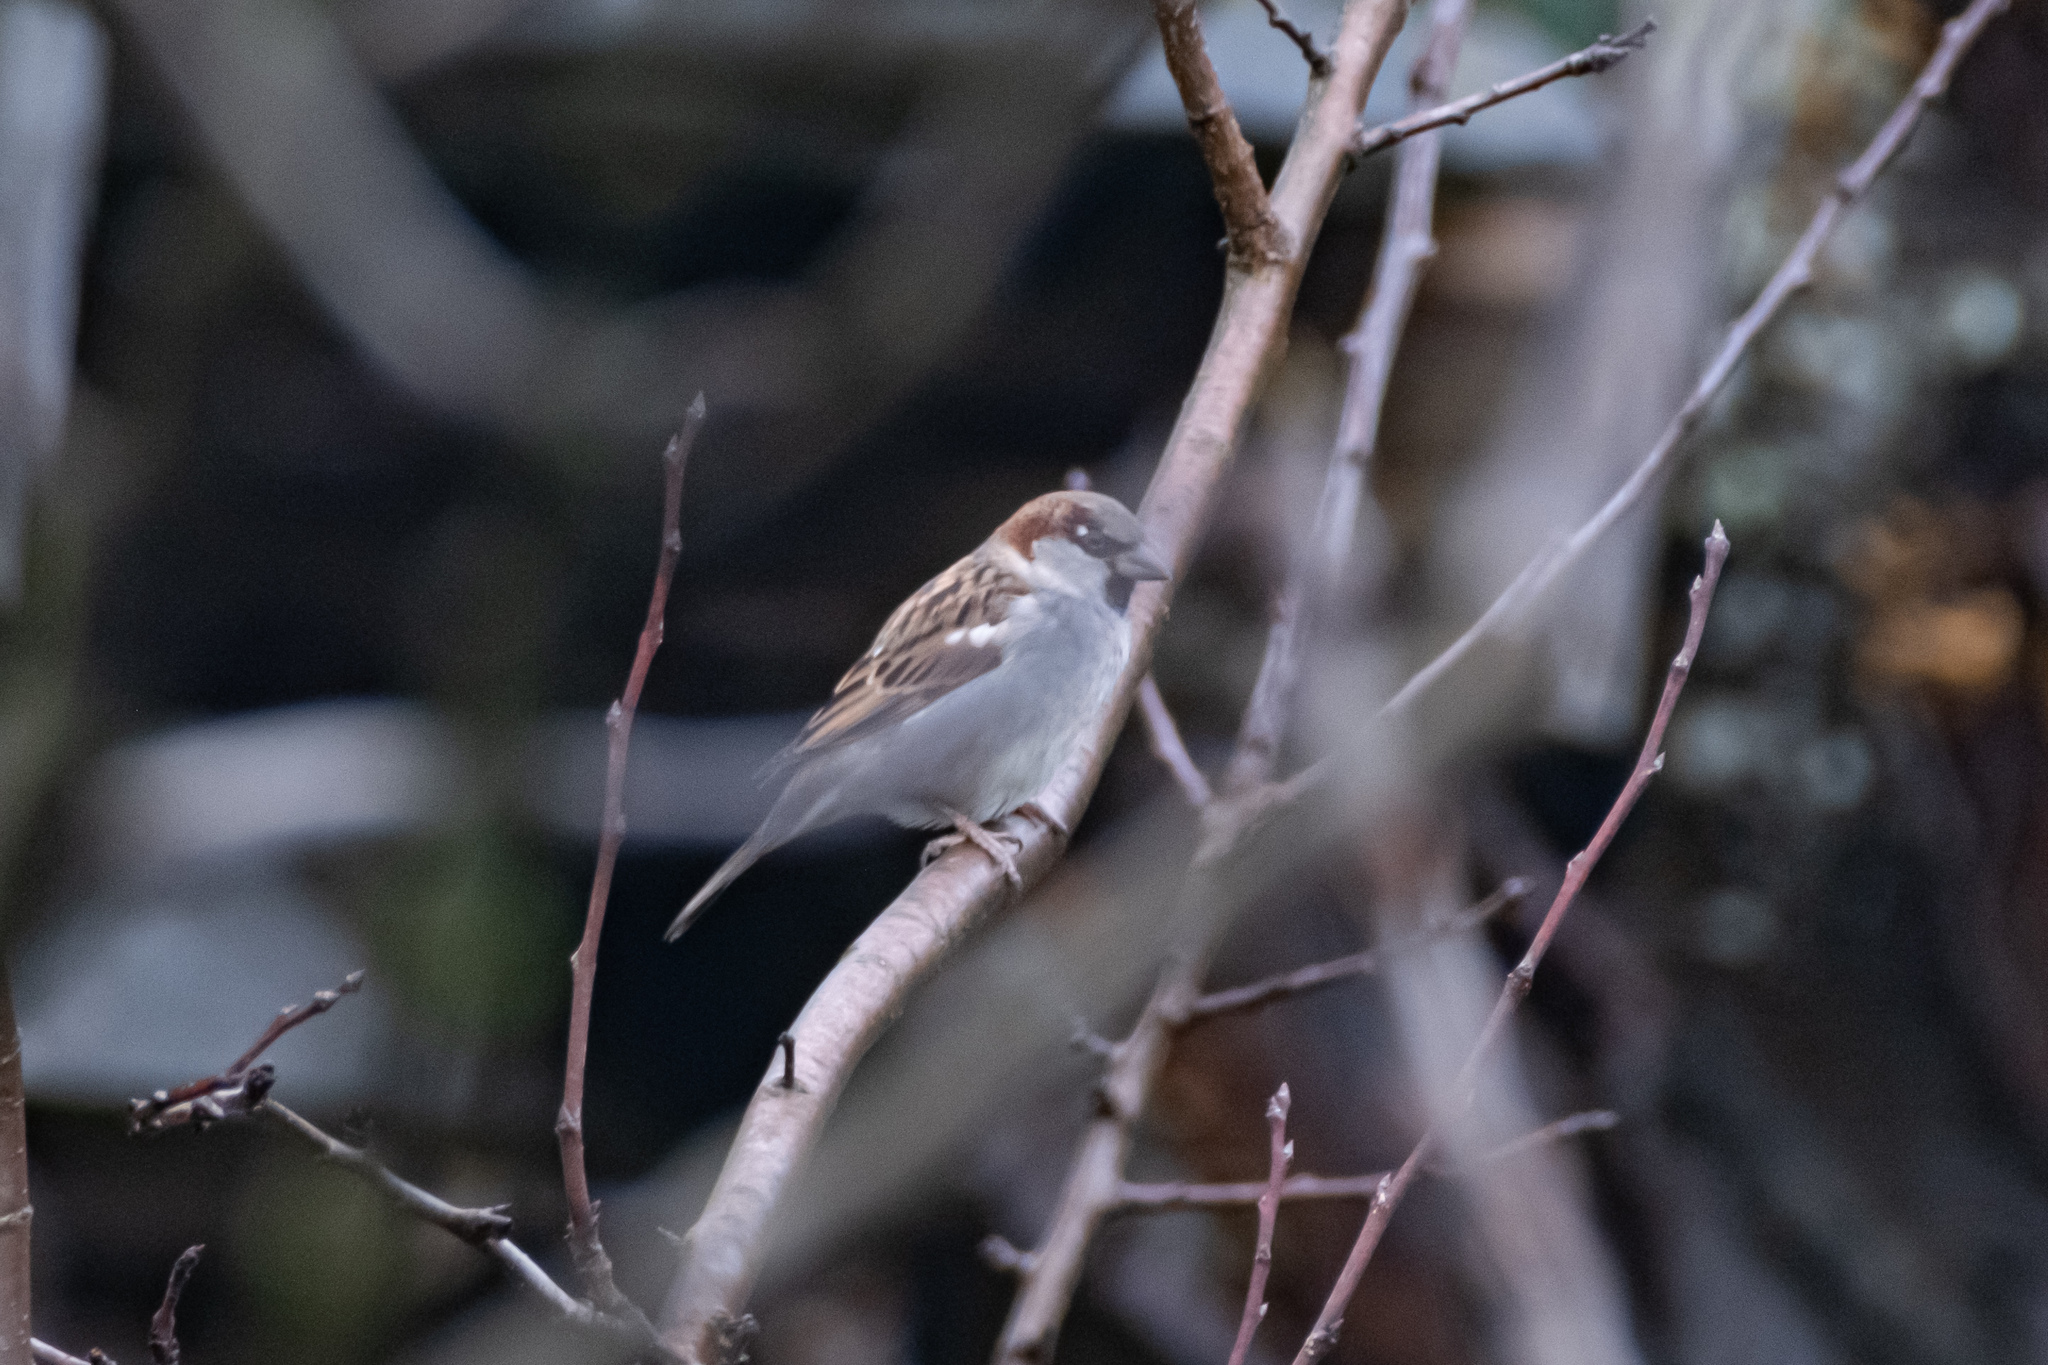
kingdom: Animalia
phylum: Chordata
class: Aves
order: Passeriformes
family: Passeridae
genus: Passer
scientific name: Passer domesticus
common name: House sparrow
